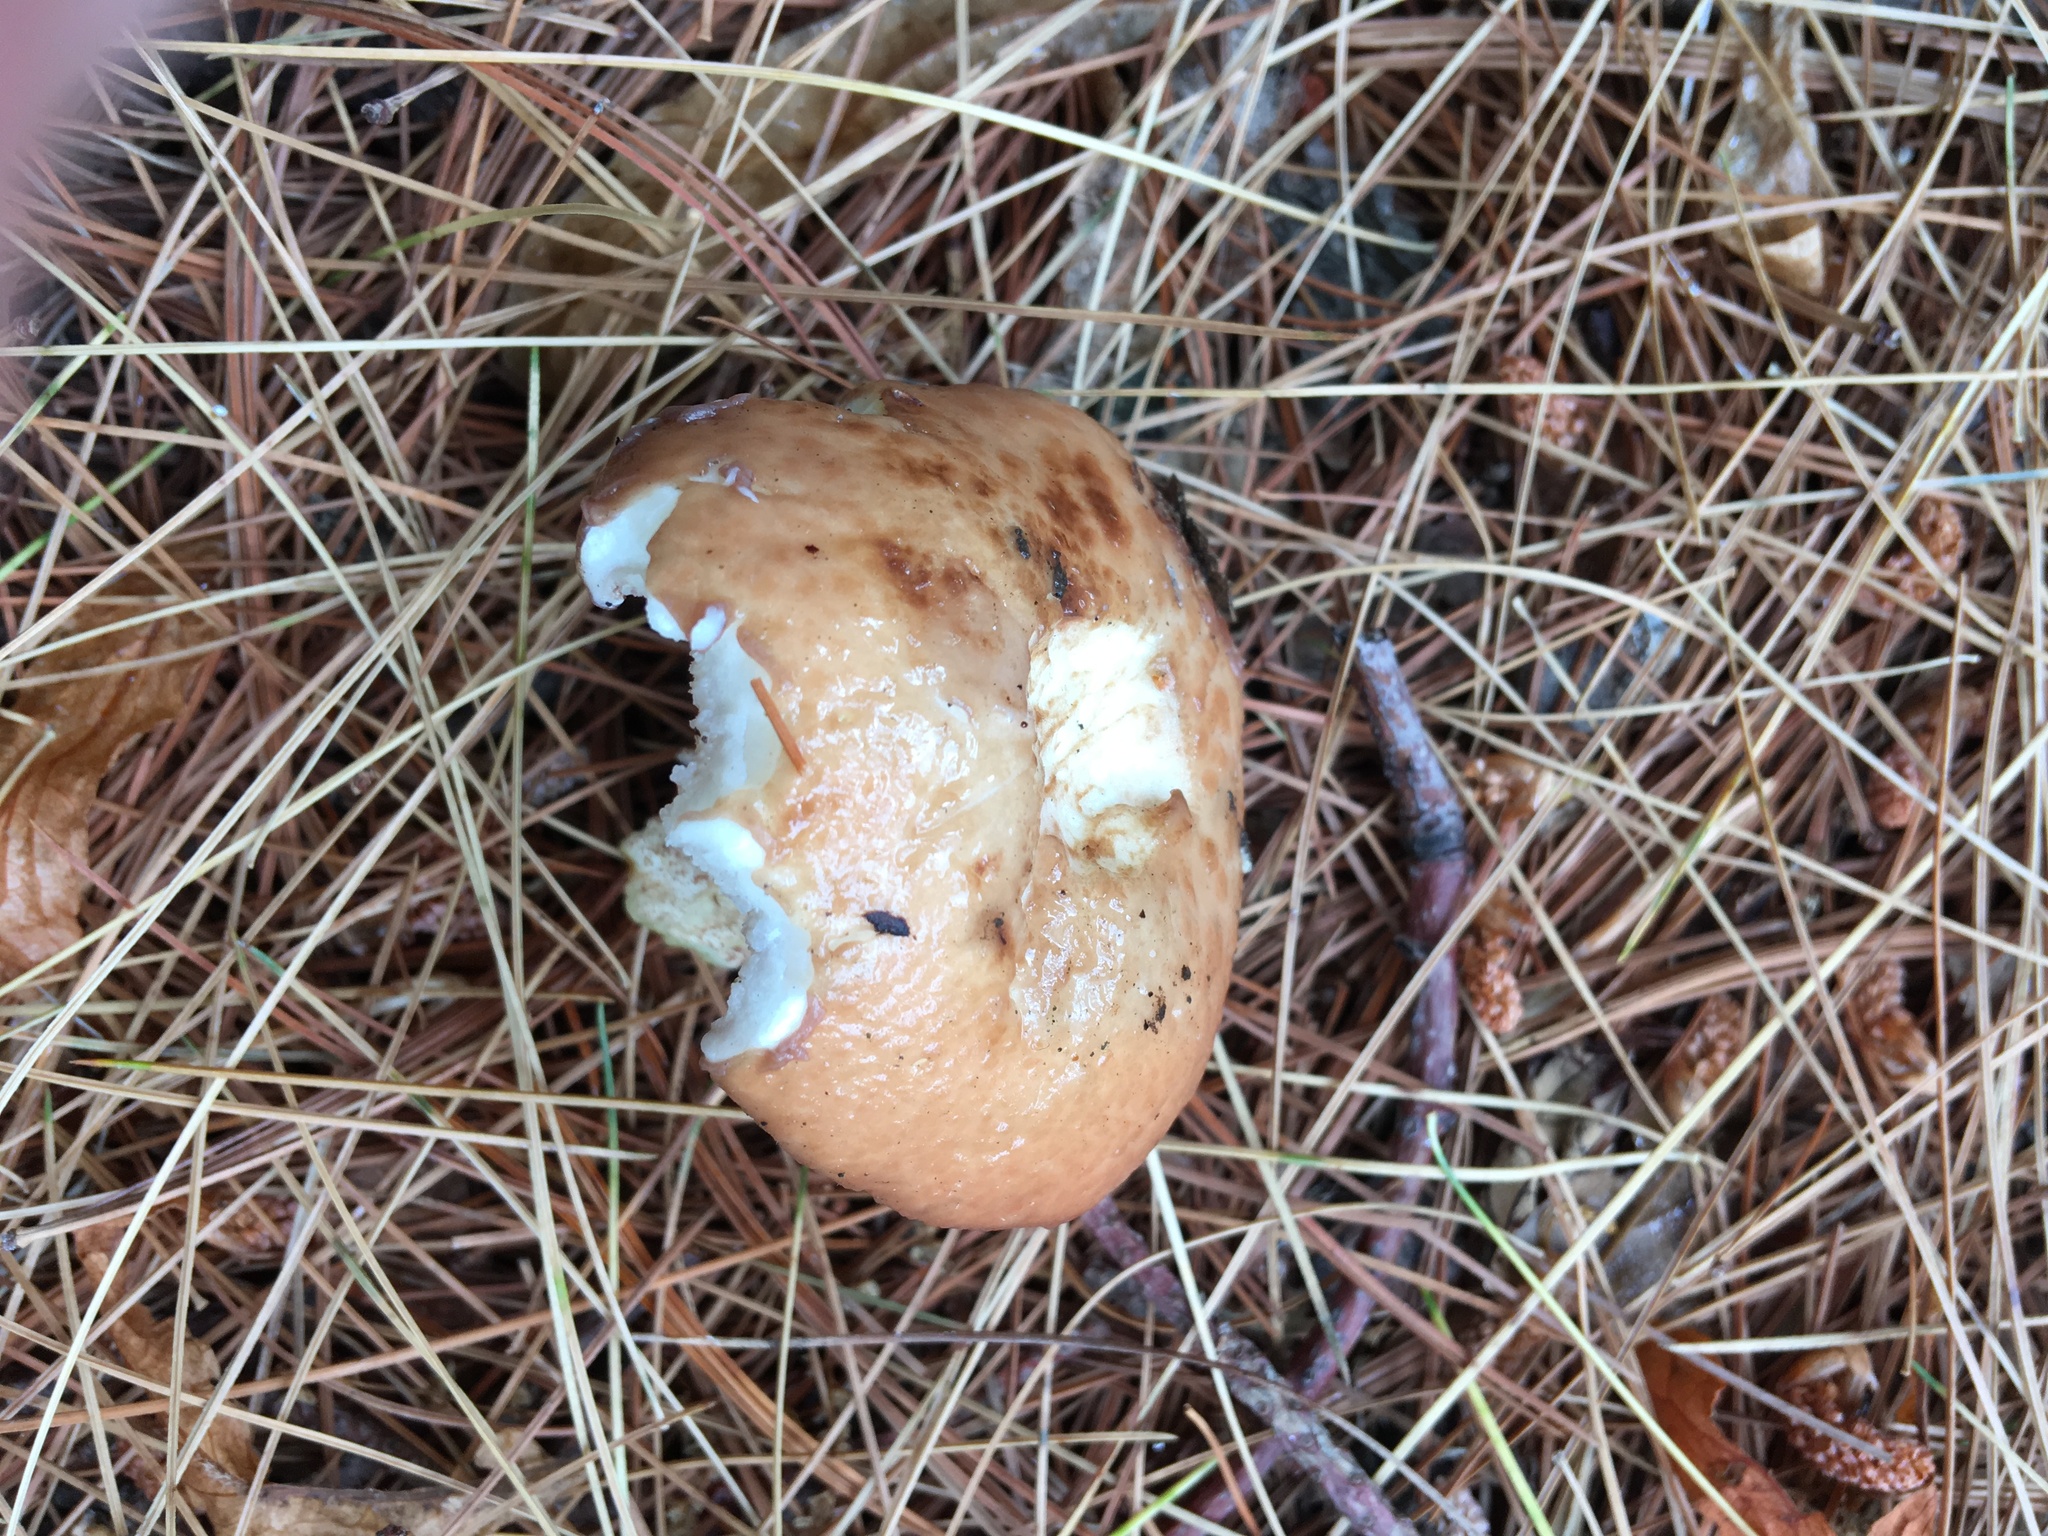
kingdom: Fungi
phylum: Basidiomycota
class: Agaricomycetes
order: Boletales
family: Suillaceae
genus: Fuscoboletinus
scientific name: Fuscoboletinus weaverae
